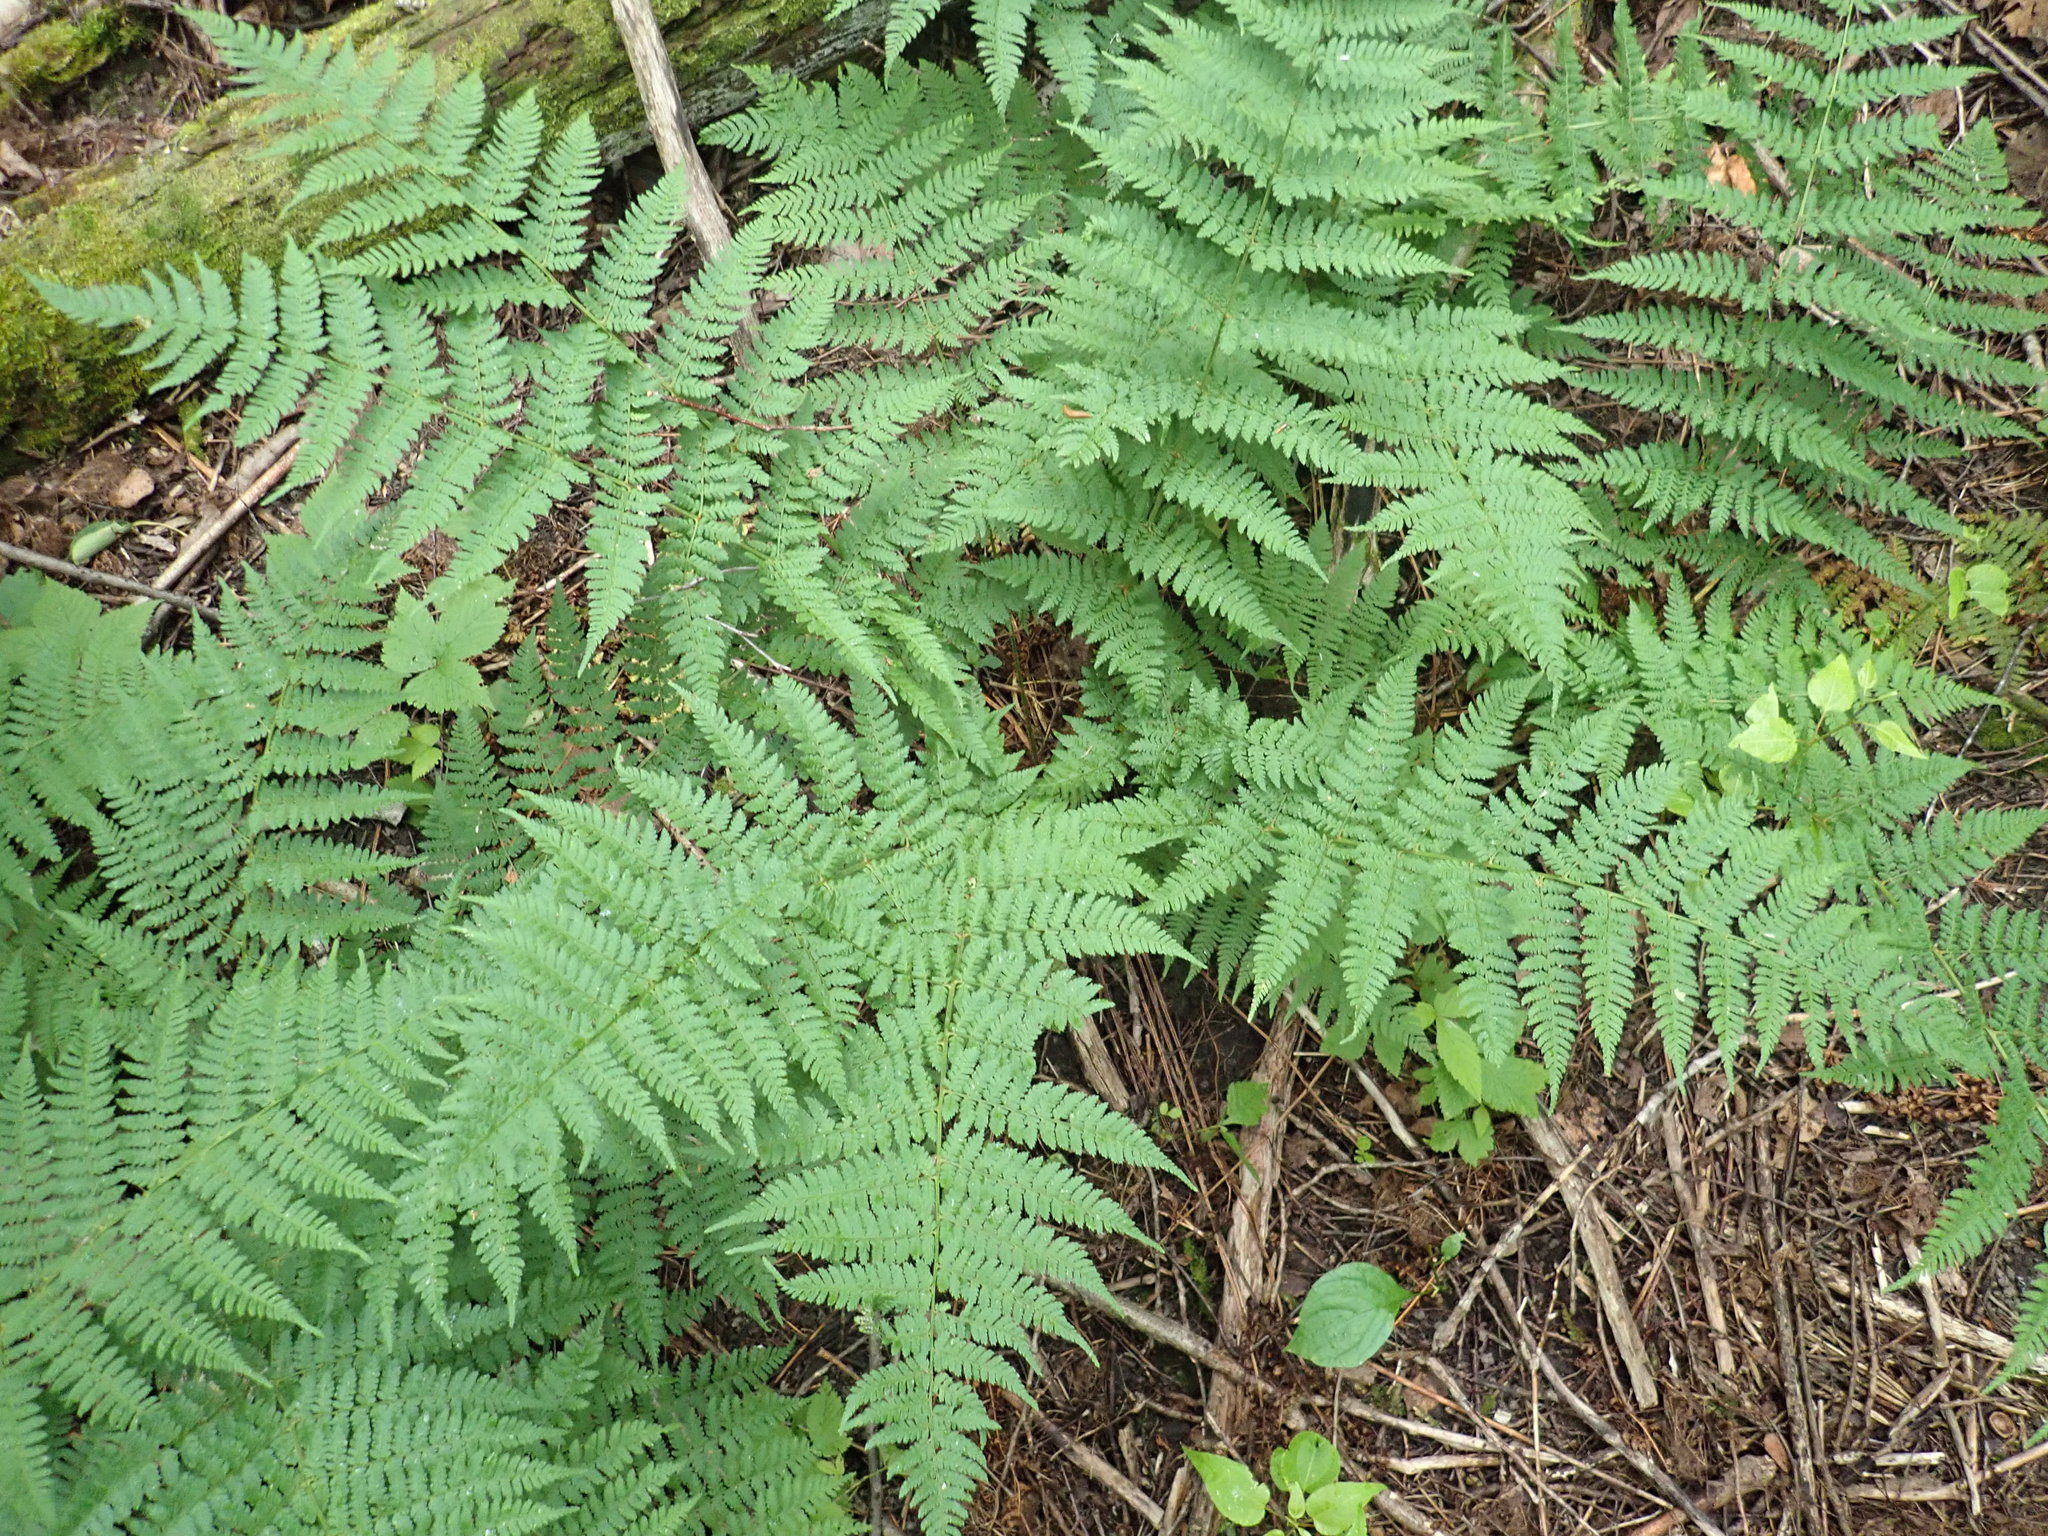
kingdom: Plantae
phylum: Tracheophyta
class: Polypodiopsida
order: Polypodiales
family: Dryopteridaceae
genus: Dryopteris
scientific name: Dryopteris intermedia
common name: Evergreen wood fern
